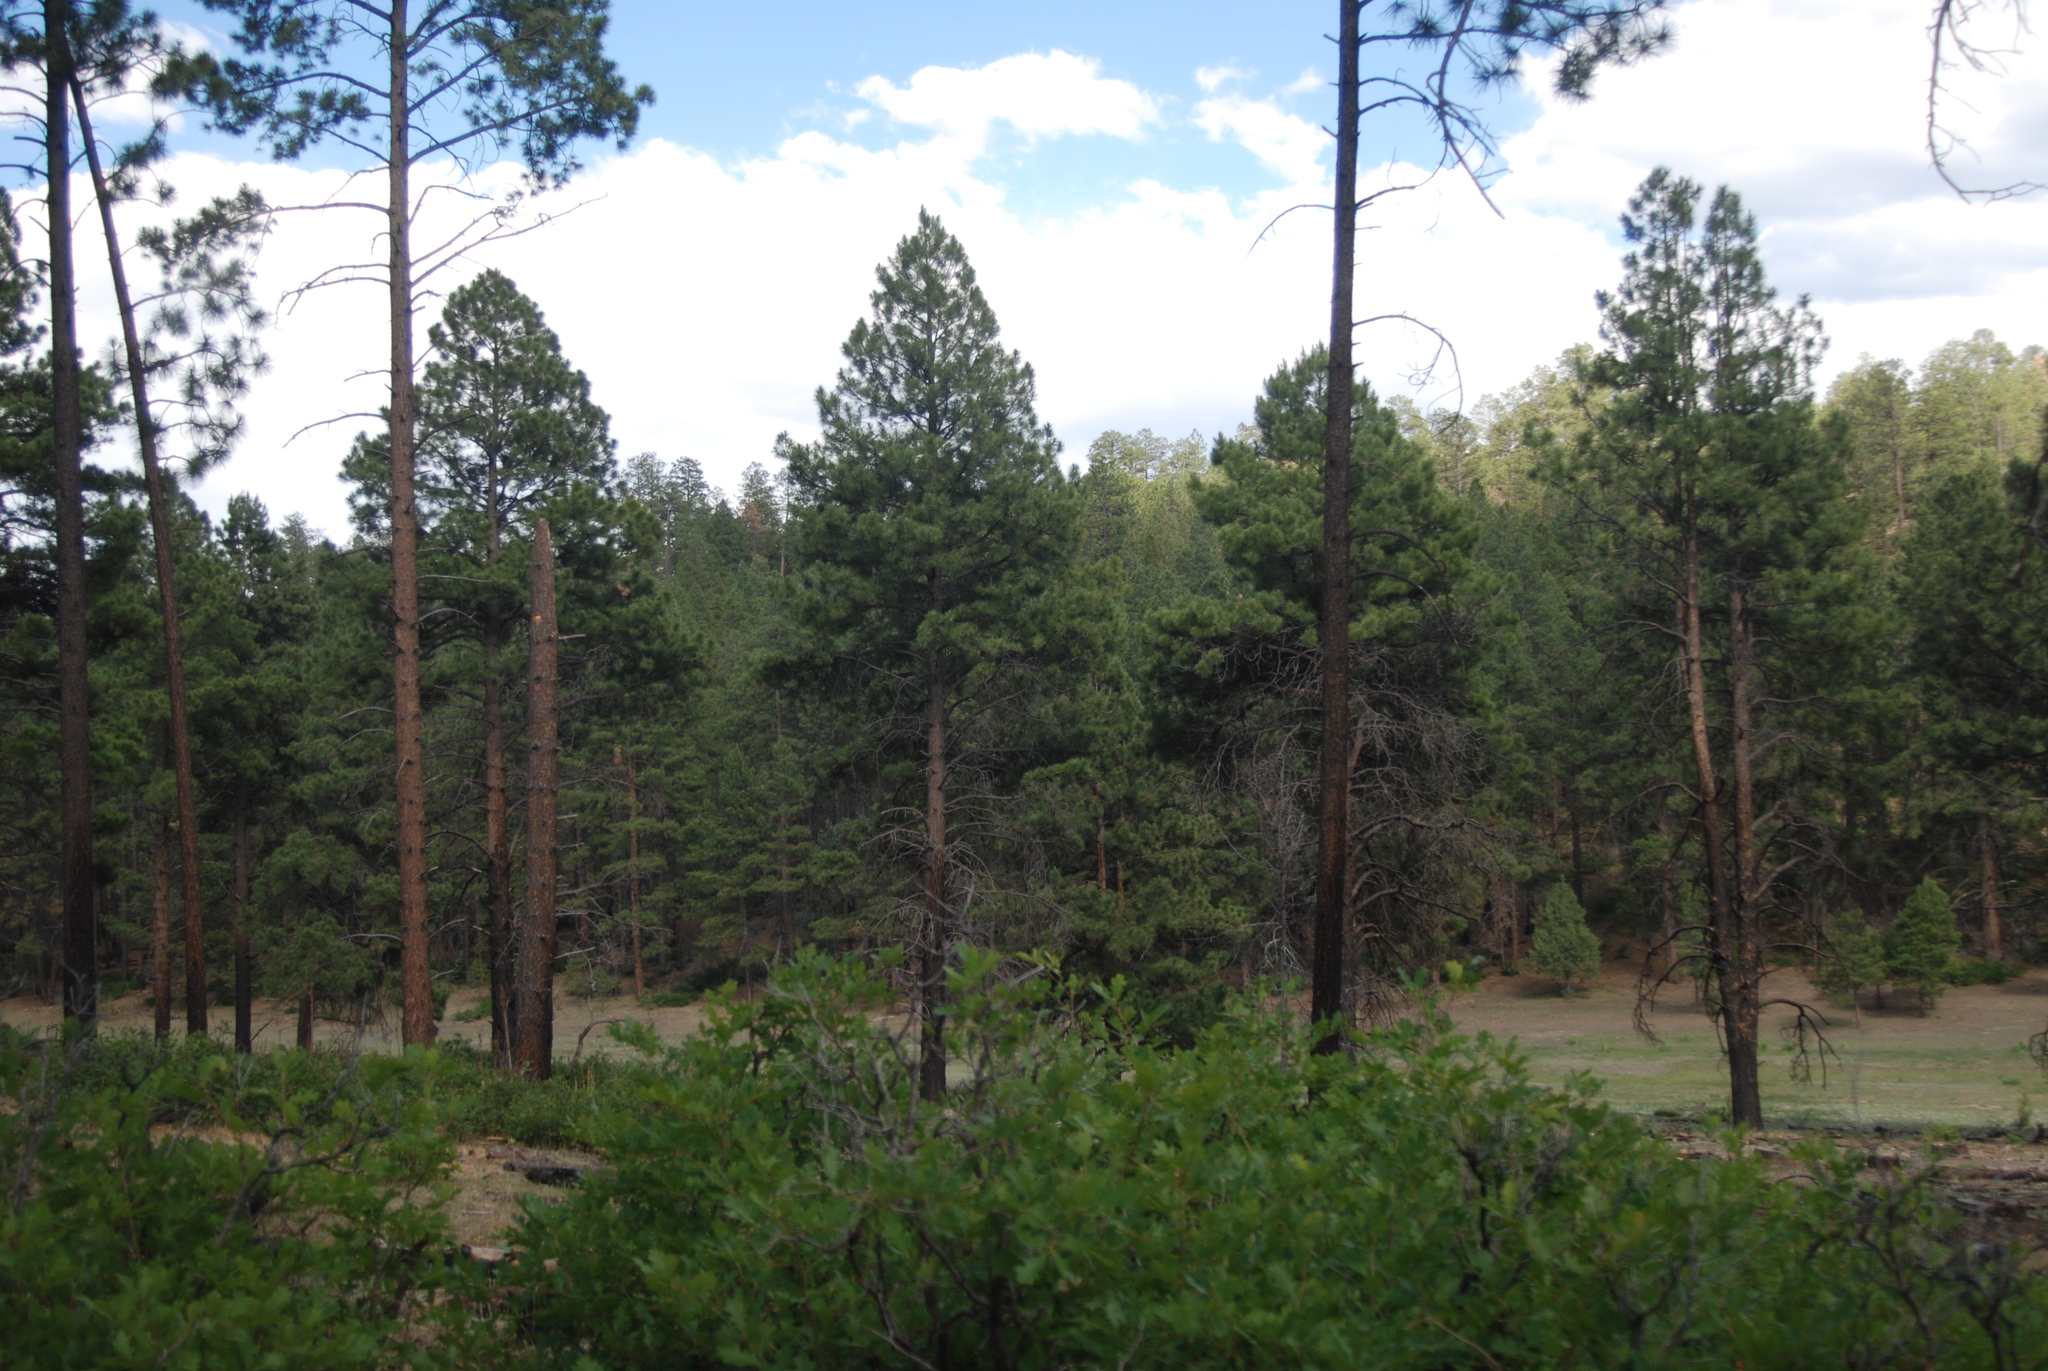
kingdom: Plantae
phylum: Tracheophyta
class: Magnoliopsida
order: Fagales
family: Fagaceae
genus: Quercus
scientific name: Quercus gambelii
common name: Gambel oak
